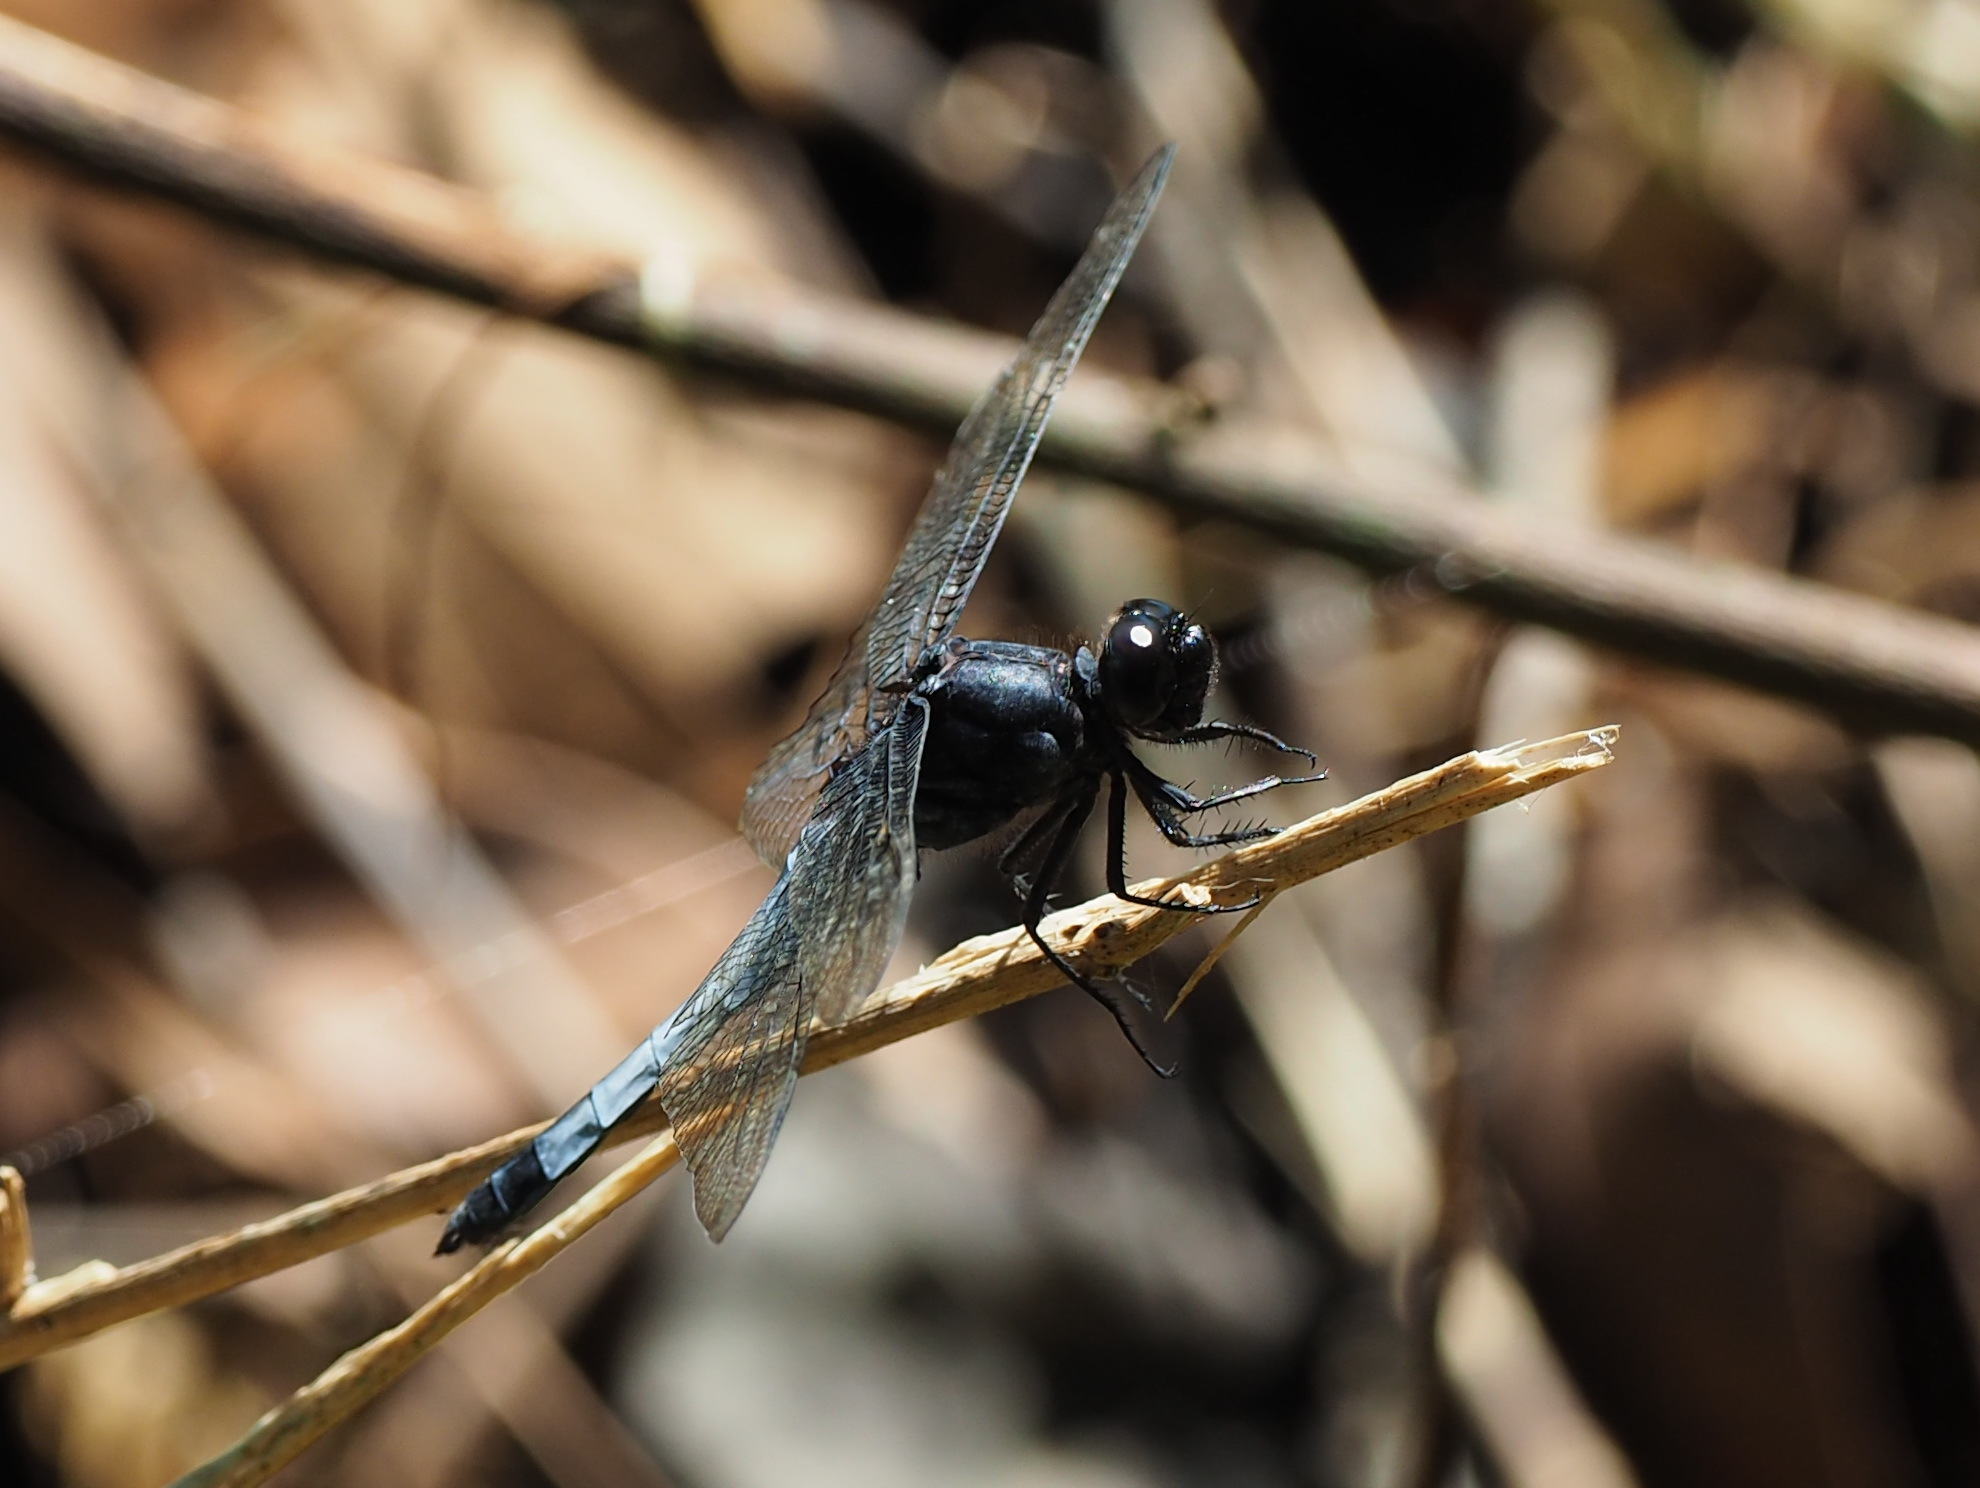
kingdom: Animalia
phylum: Arthropoda
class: Insecta
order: Odonata
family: Libellulidae
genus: Orthetrum
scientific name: Orthetrum triangulare
